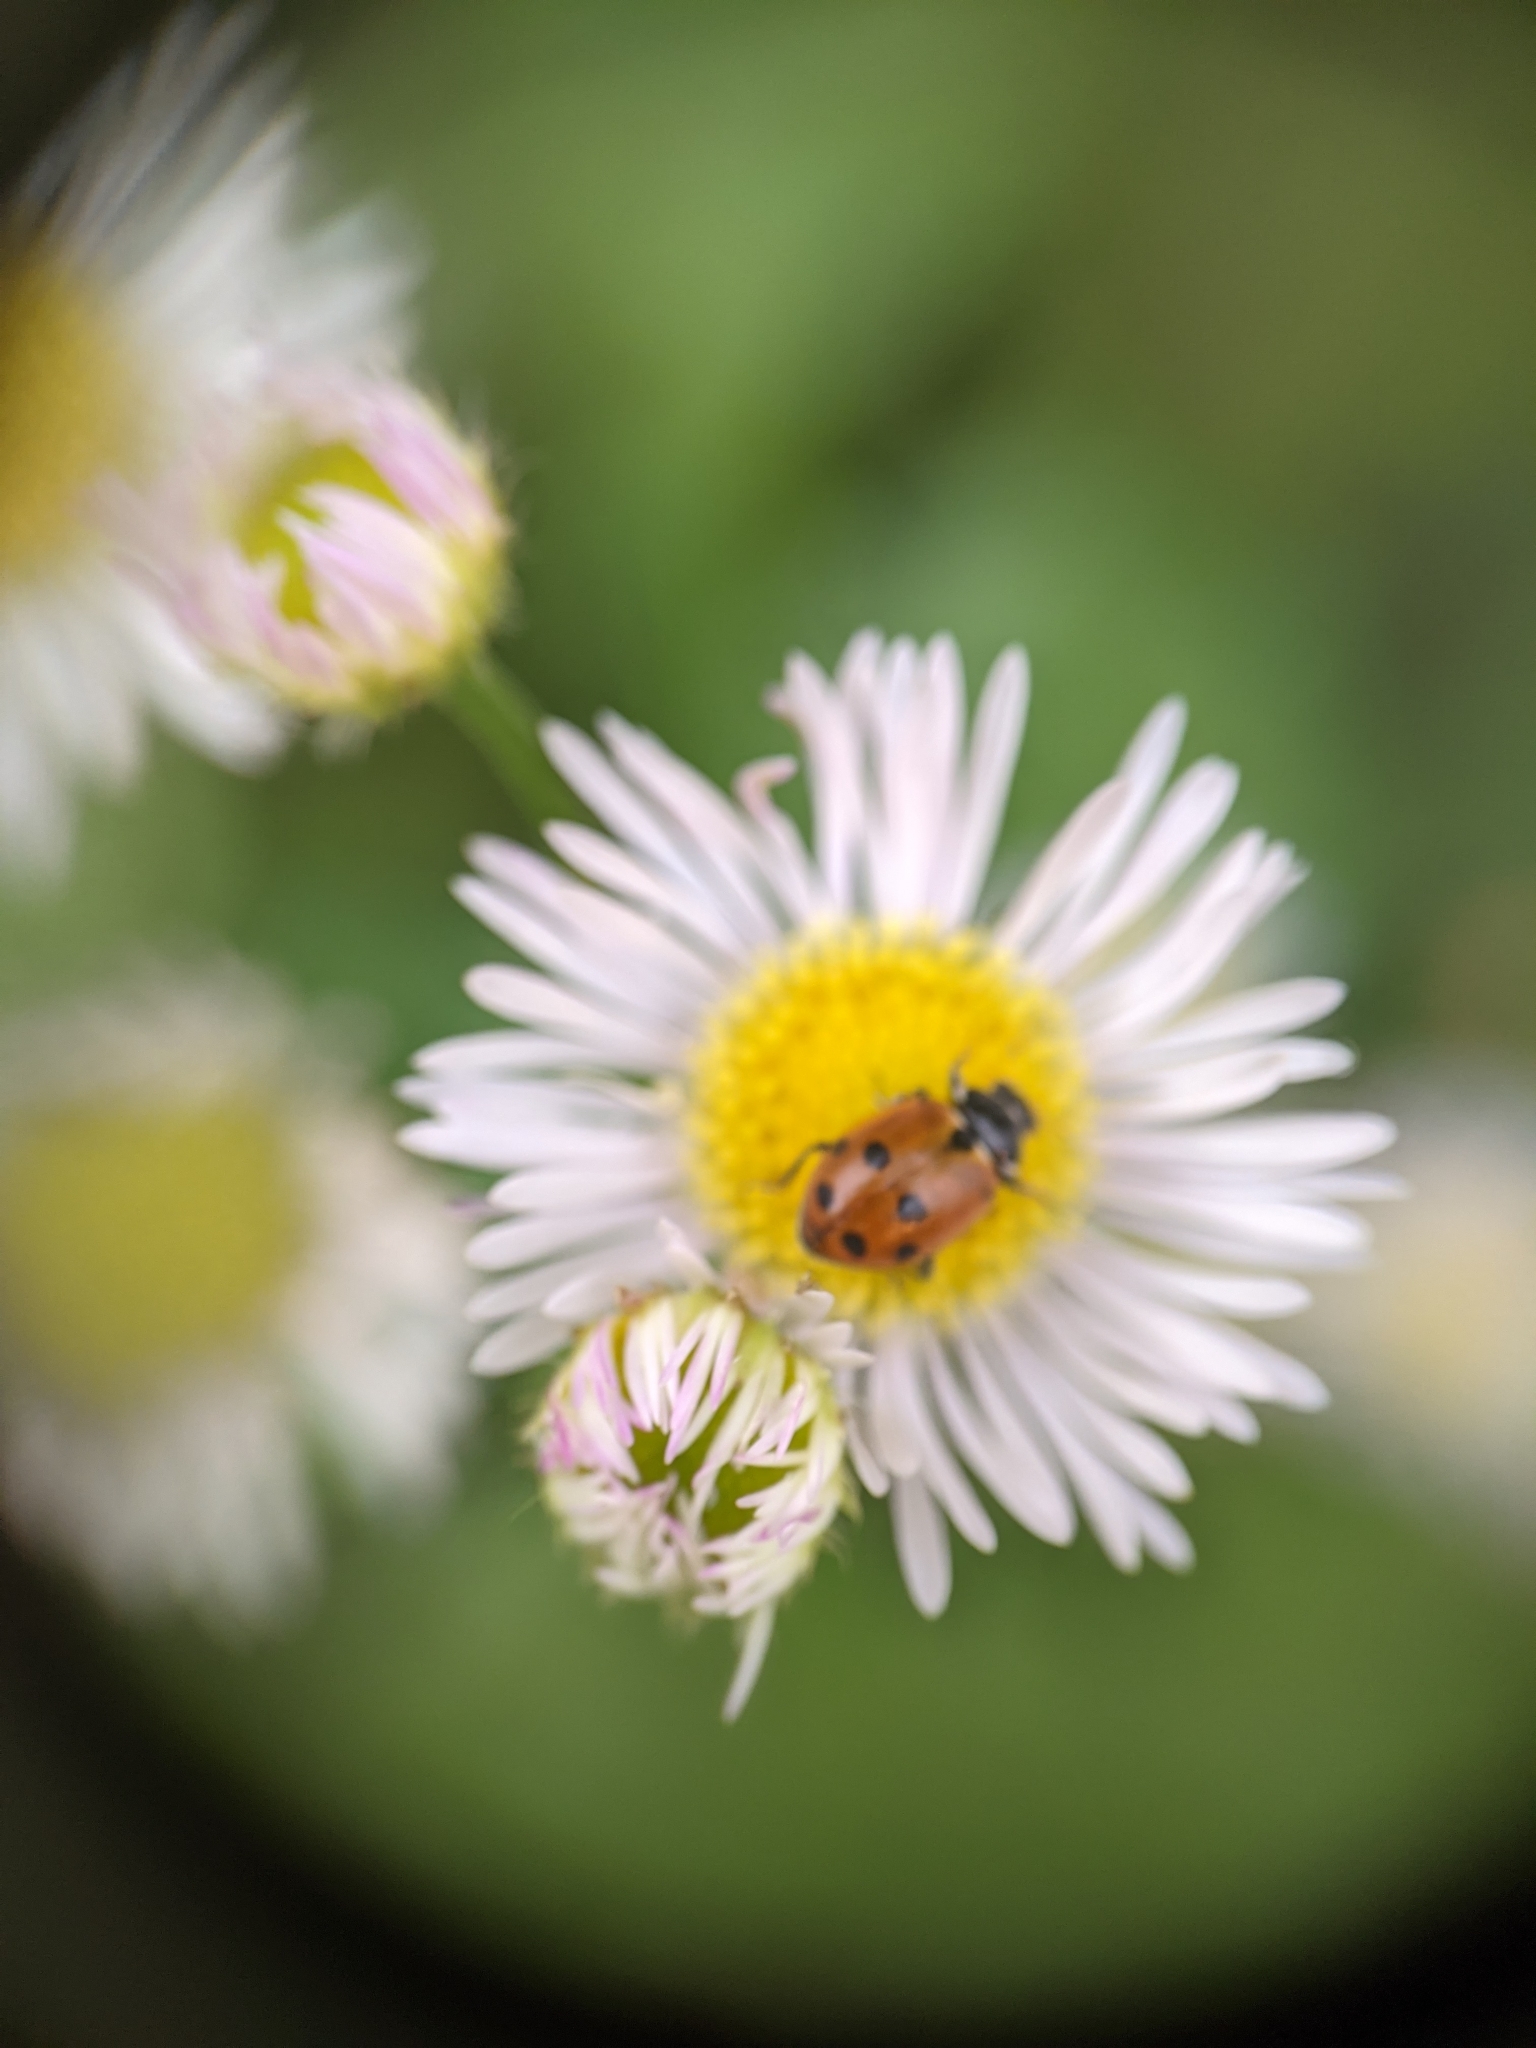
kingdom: Animalia
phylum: Arthropoda
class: Insecta
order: Coleoptera
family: Coccinellidae
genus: Hippodamia
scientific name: Hippodamia variegata
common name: Ladybird beetle
